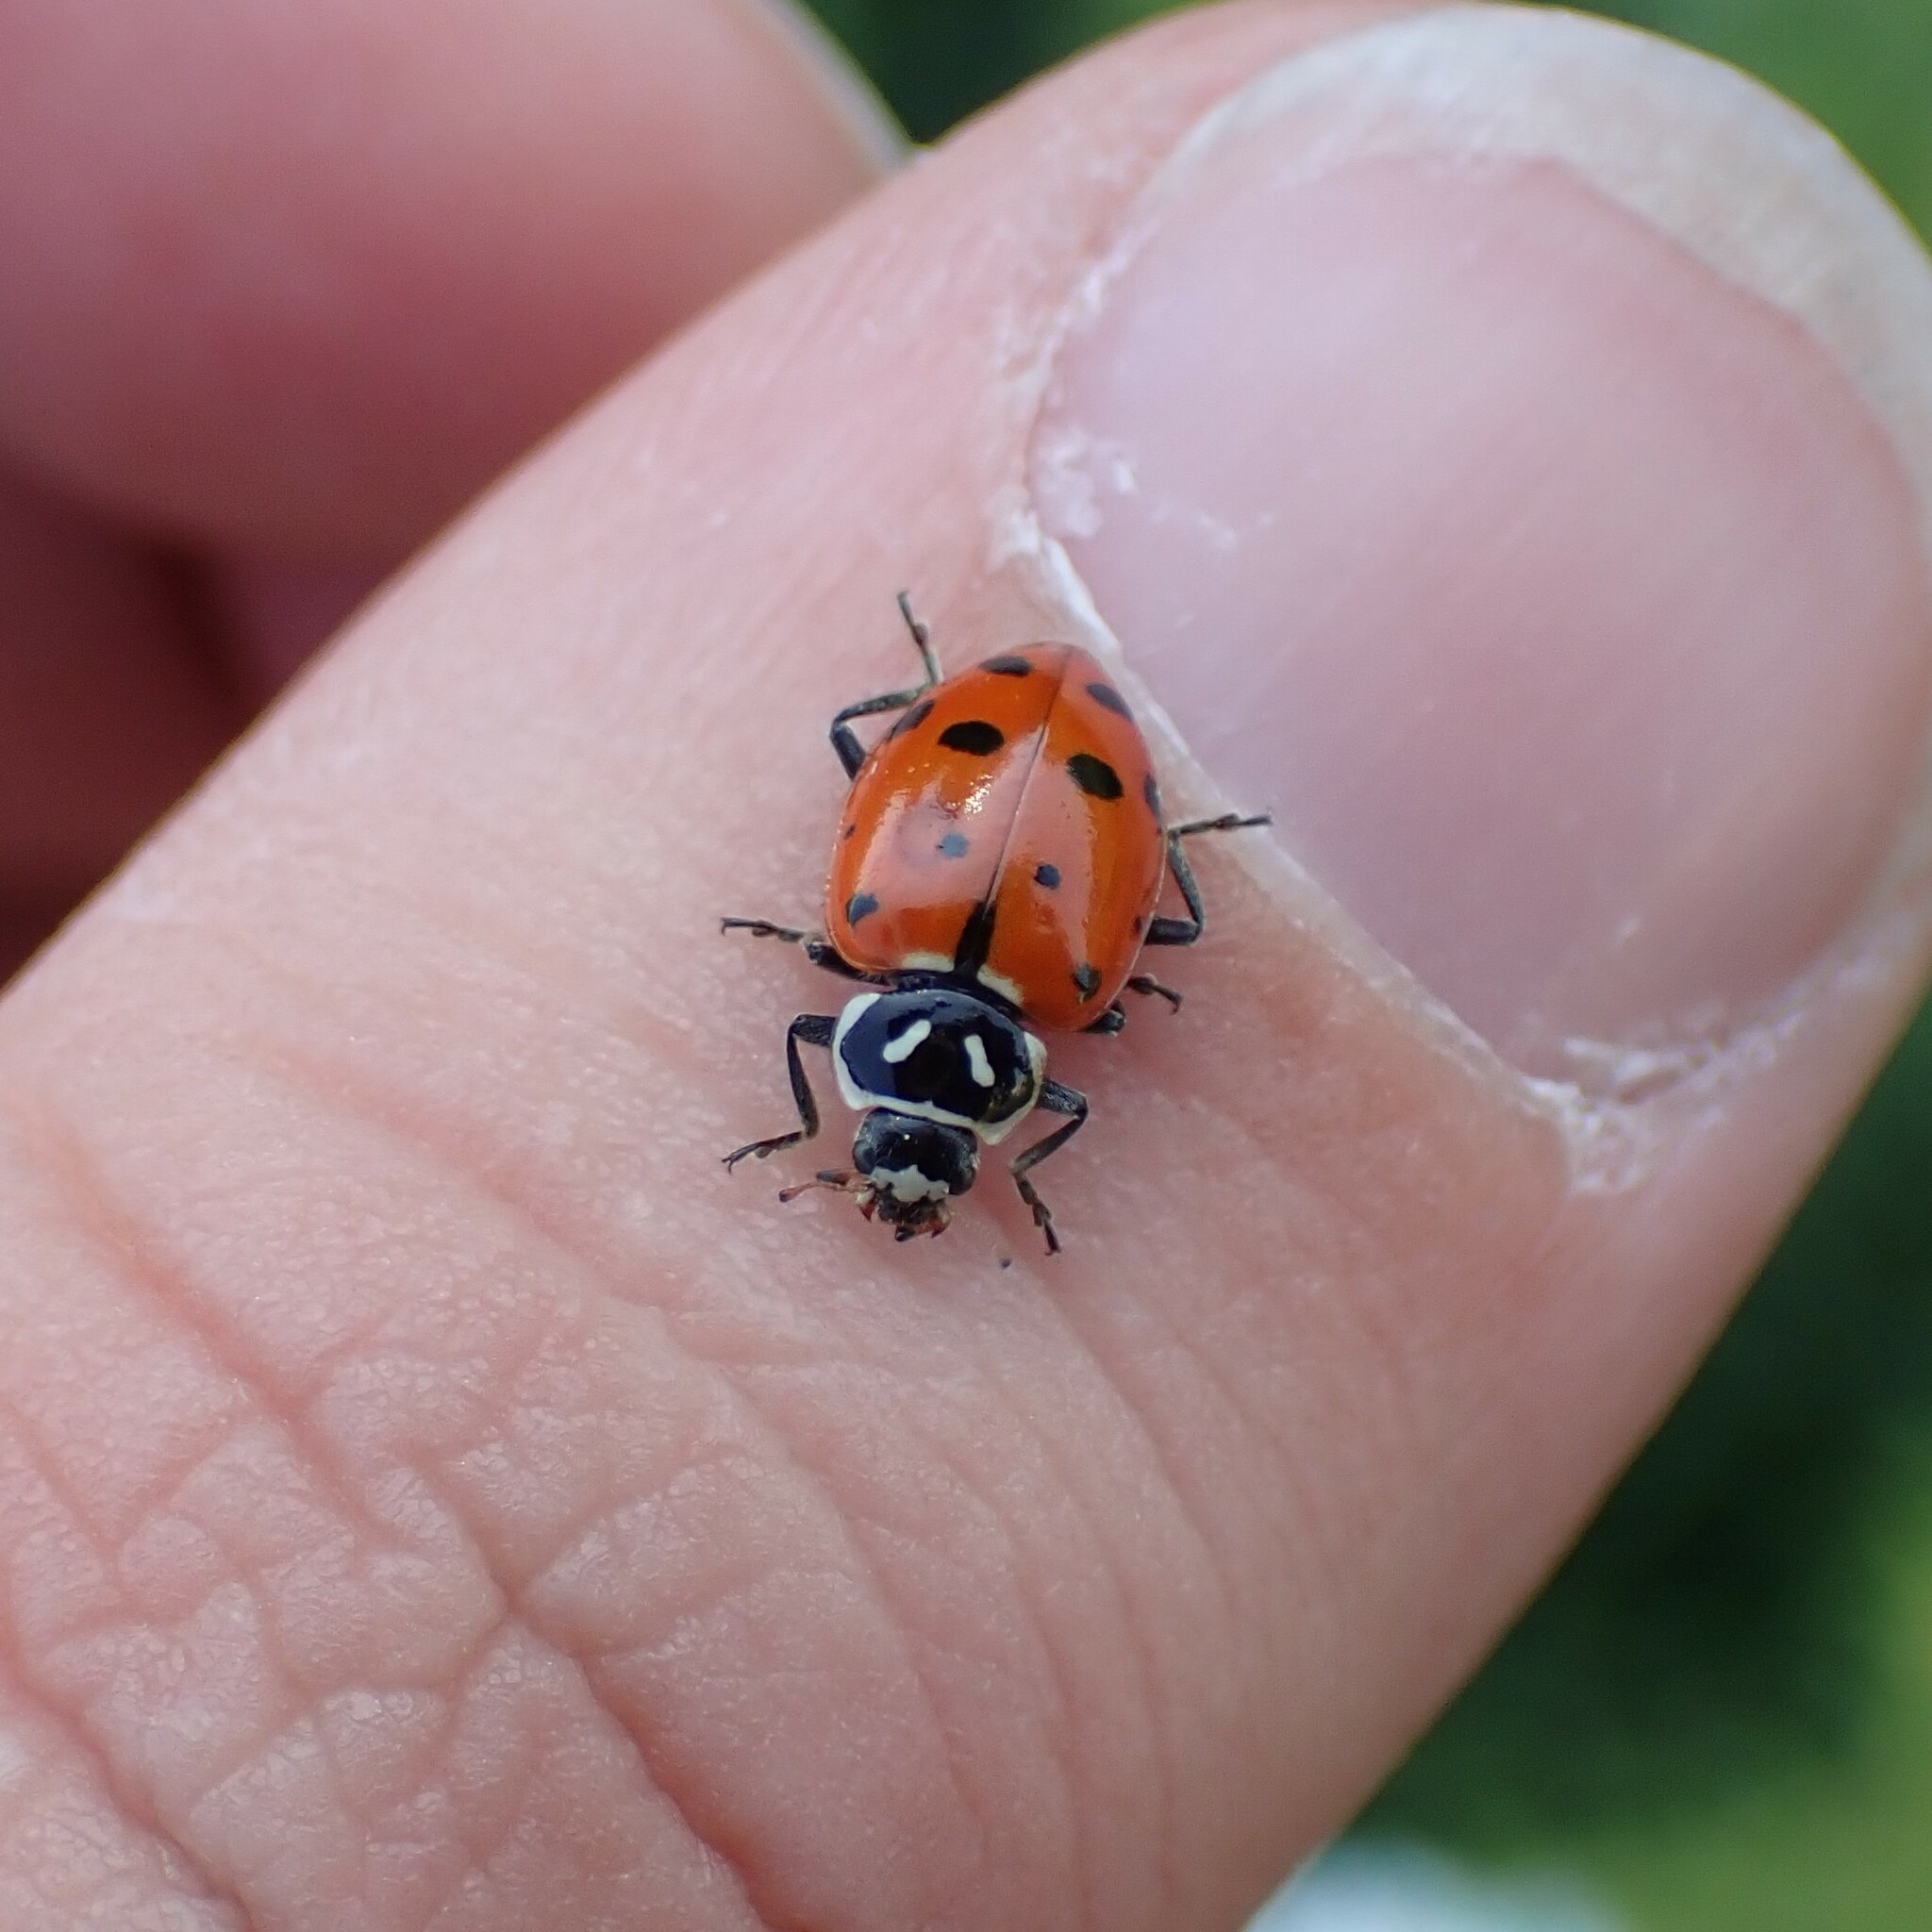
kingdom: Animalia
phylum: Arthropoda
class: Insecta
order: Coleoptera
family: Coccinellidae
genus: Hippodamia
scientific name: Hippodamia convergens
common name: Convergent lady beetle
